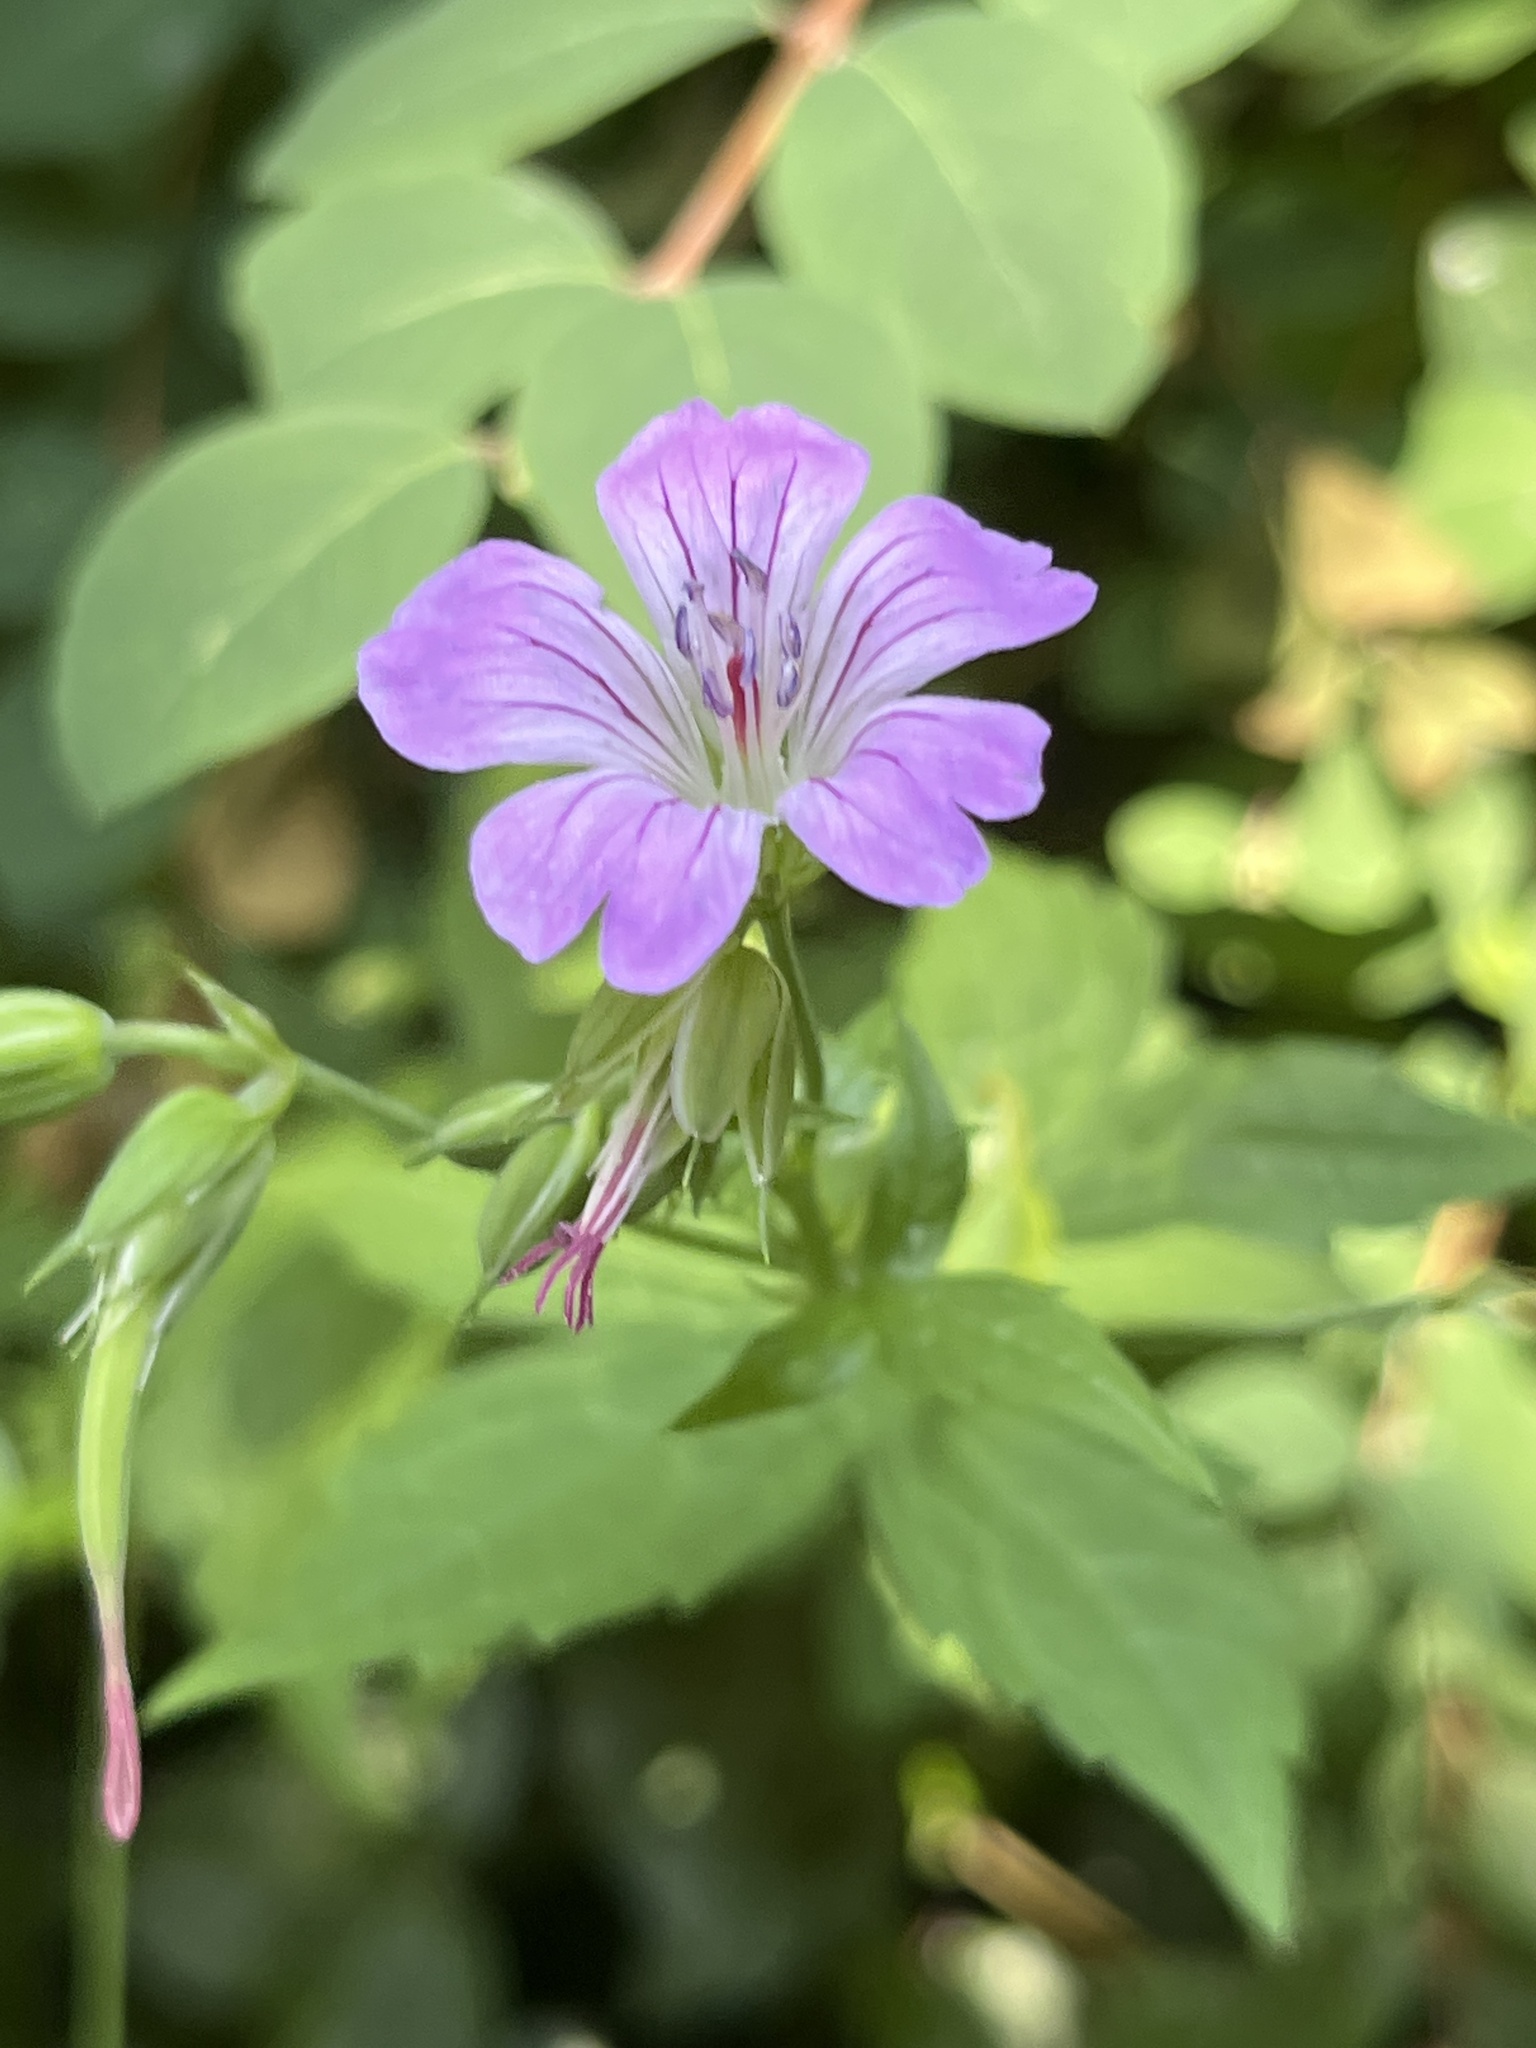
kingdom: Plantae
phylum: Tracheophyta
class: Magnoliopsida
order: Geraniales
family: Geraniaceae
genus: Geranium
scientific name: Geranium nodosum
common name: Knotted crane's-bill
